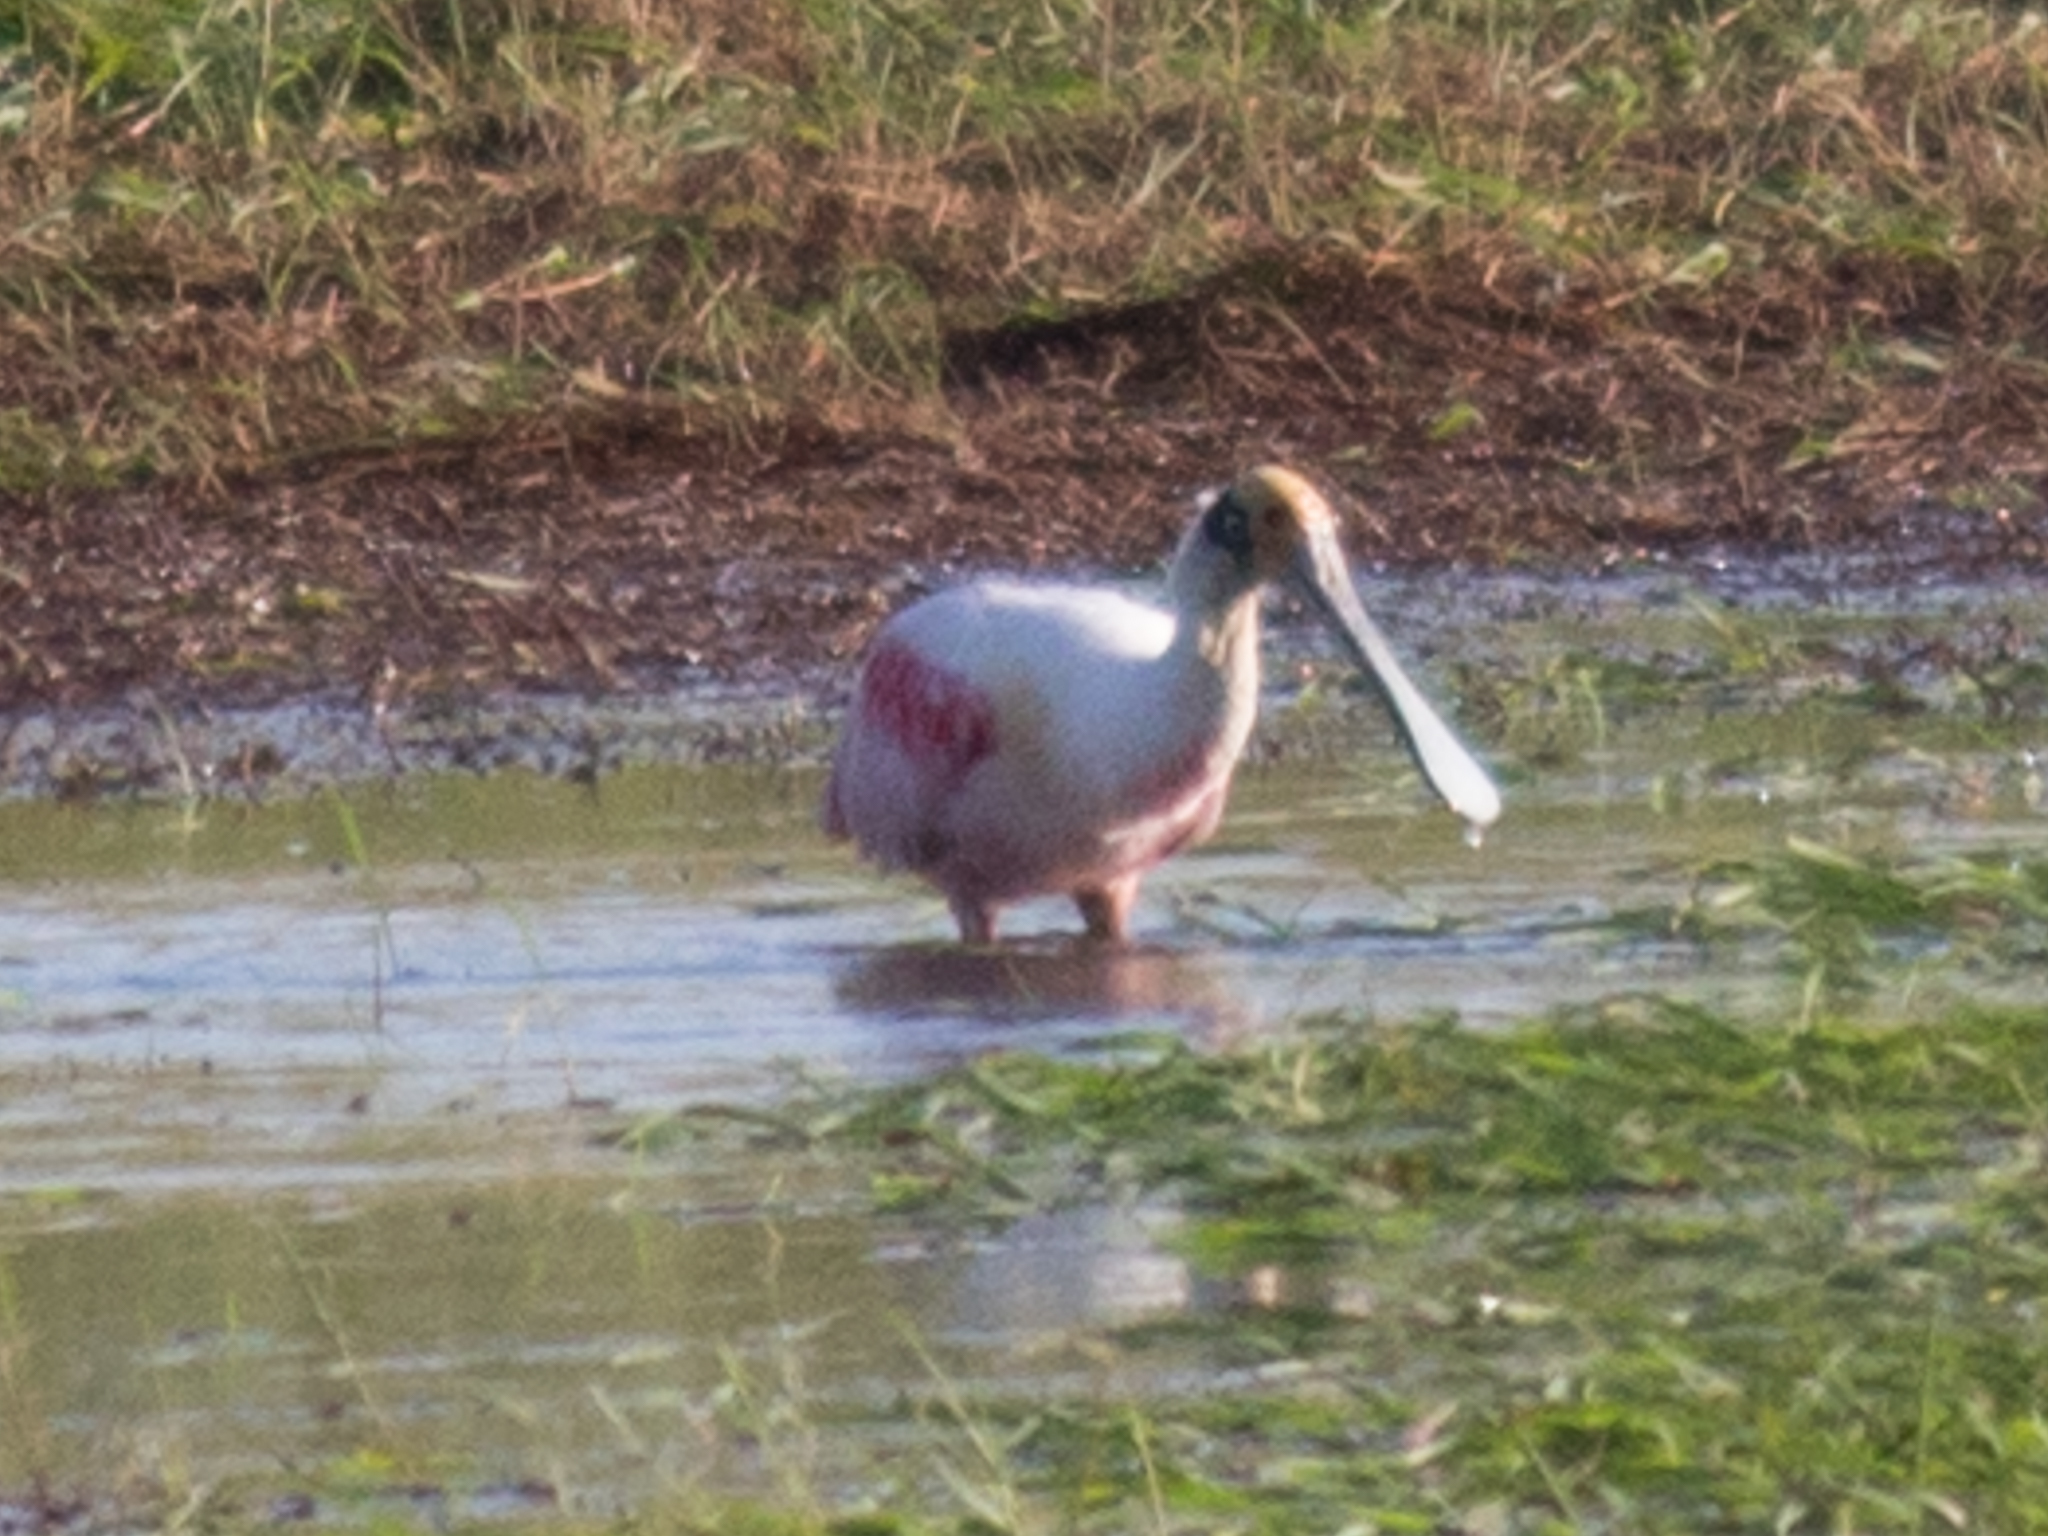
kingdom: Animalia
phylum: Chordata
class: Aves
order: Pelecaniformes
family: Threskiornithidae
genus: Platalea
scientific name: Platalea ajaja
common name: Roseate spoonbill
